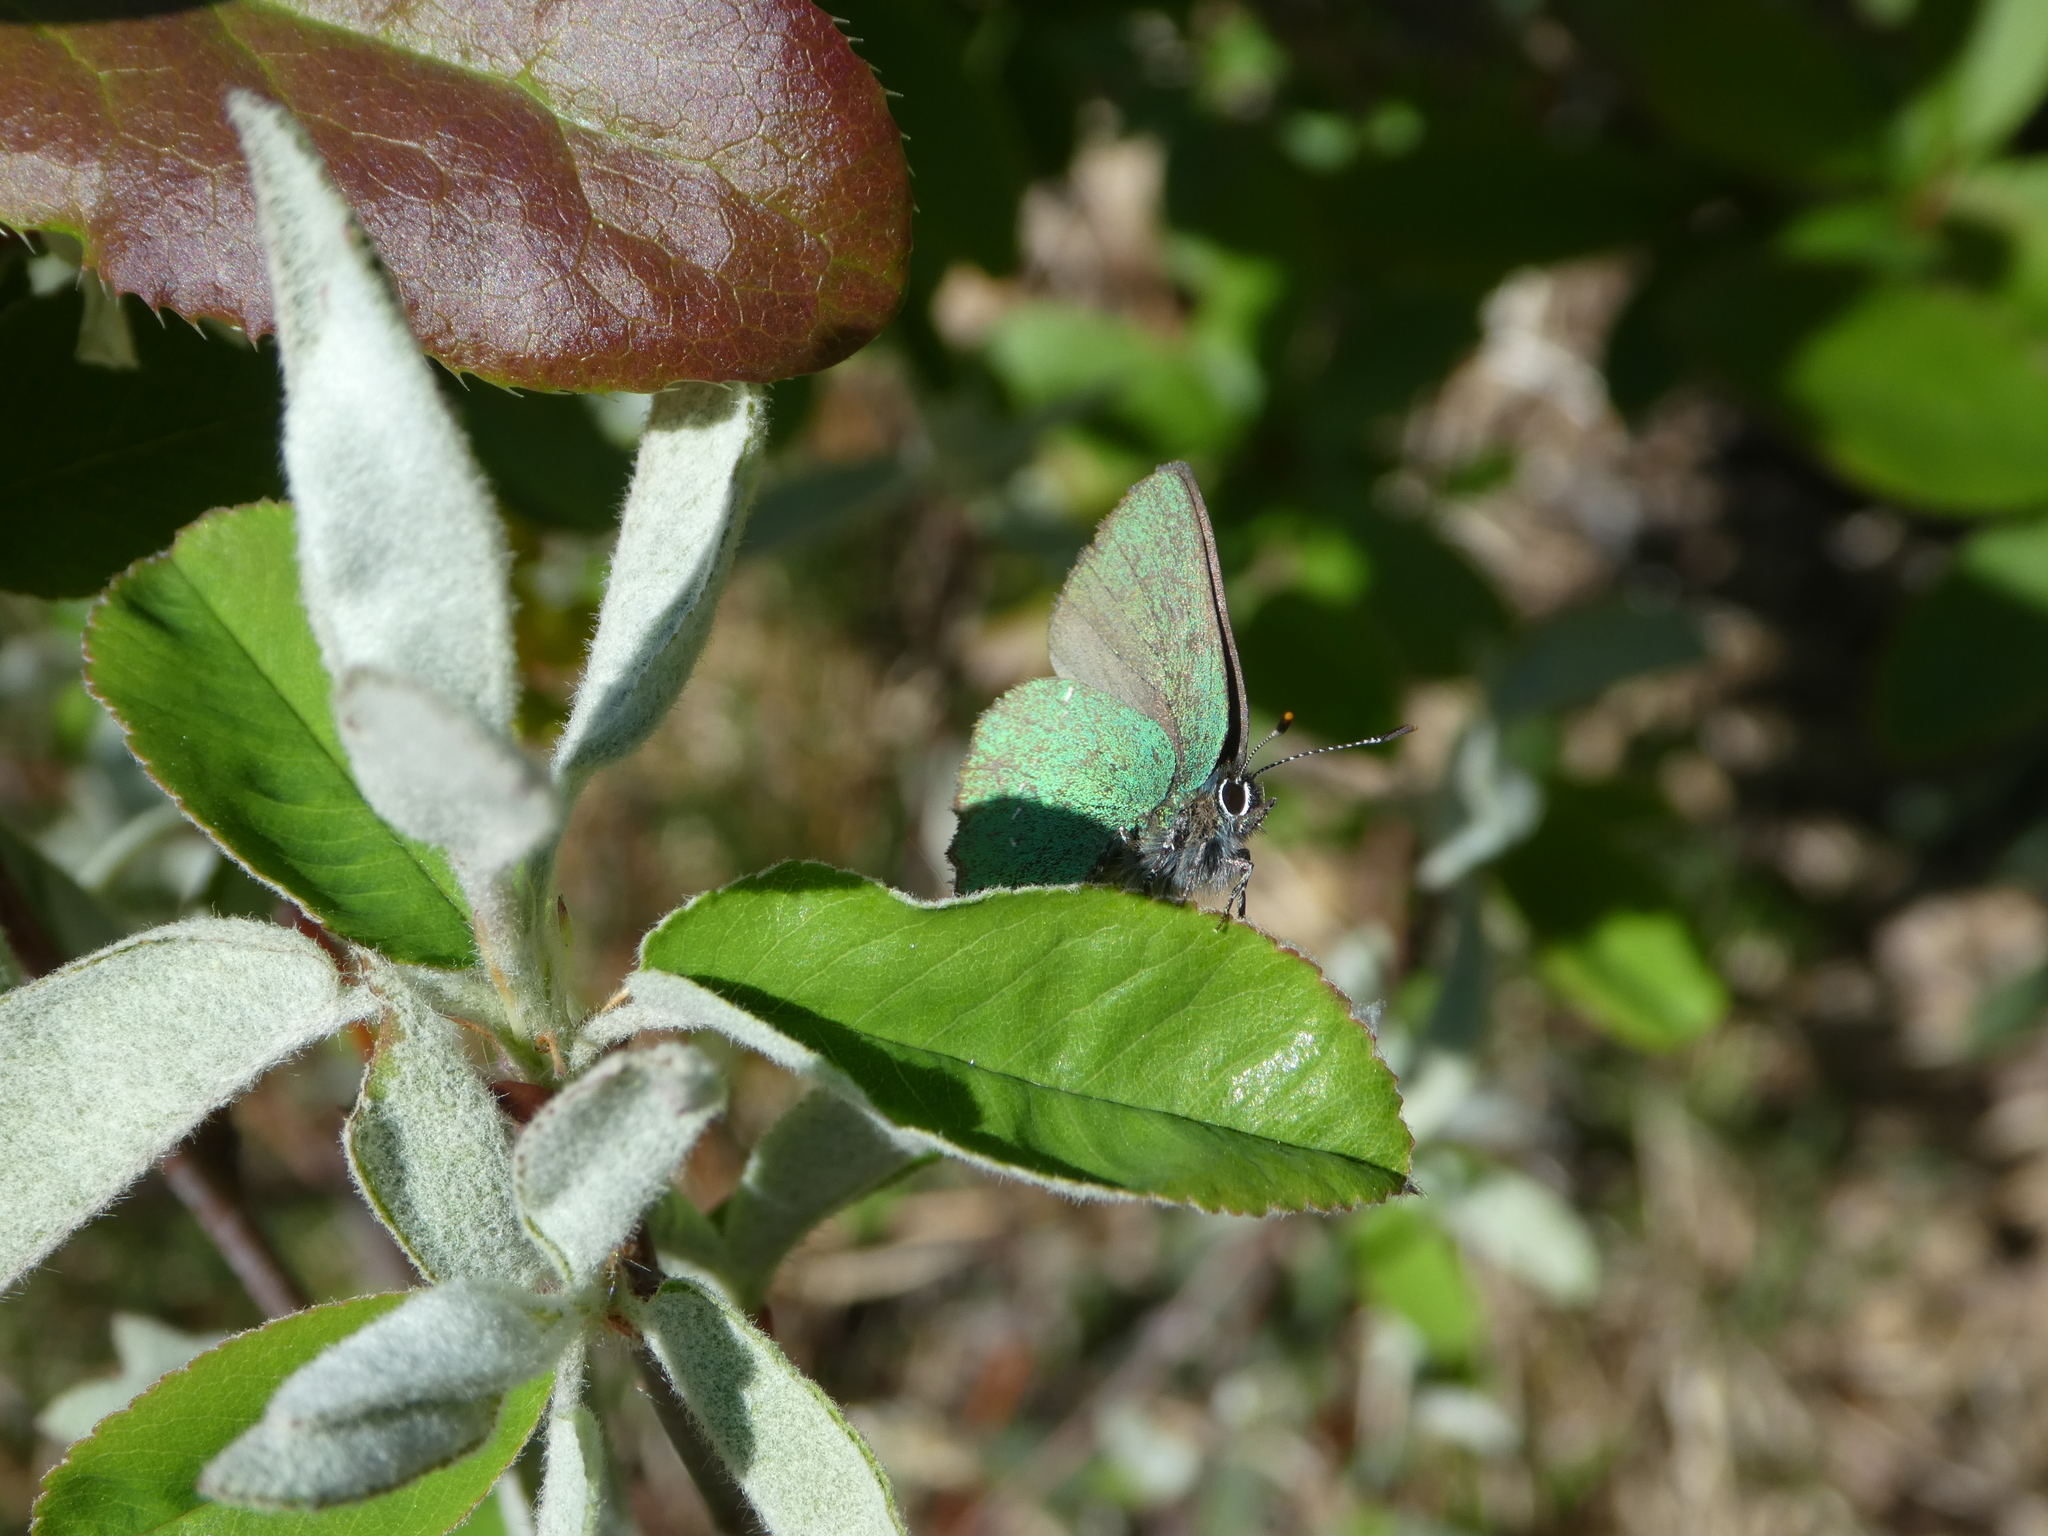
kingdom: Animalia
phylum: Arthropoda
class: Insecta
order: Lepidoptera
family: Lycaenidae
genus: Callophrys
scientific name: Callophrys rubi
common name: Green hairstreak
